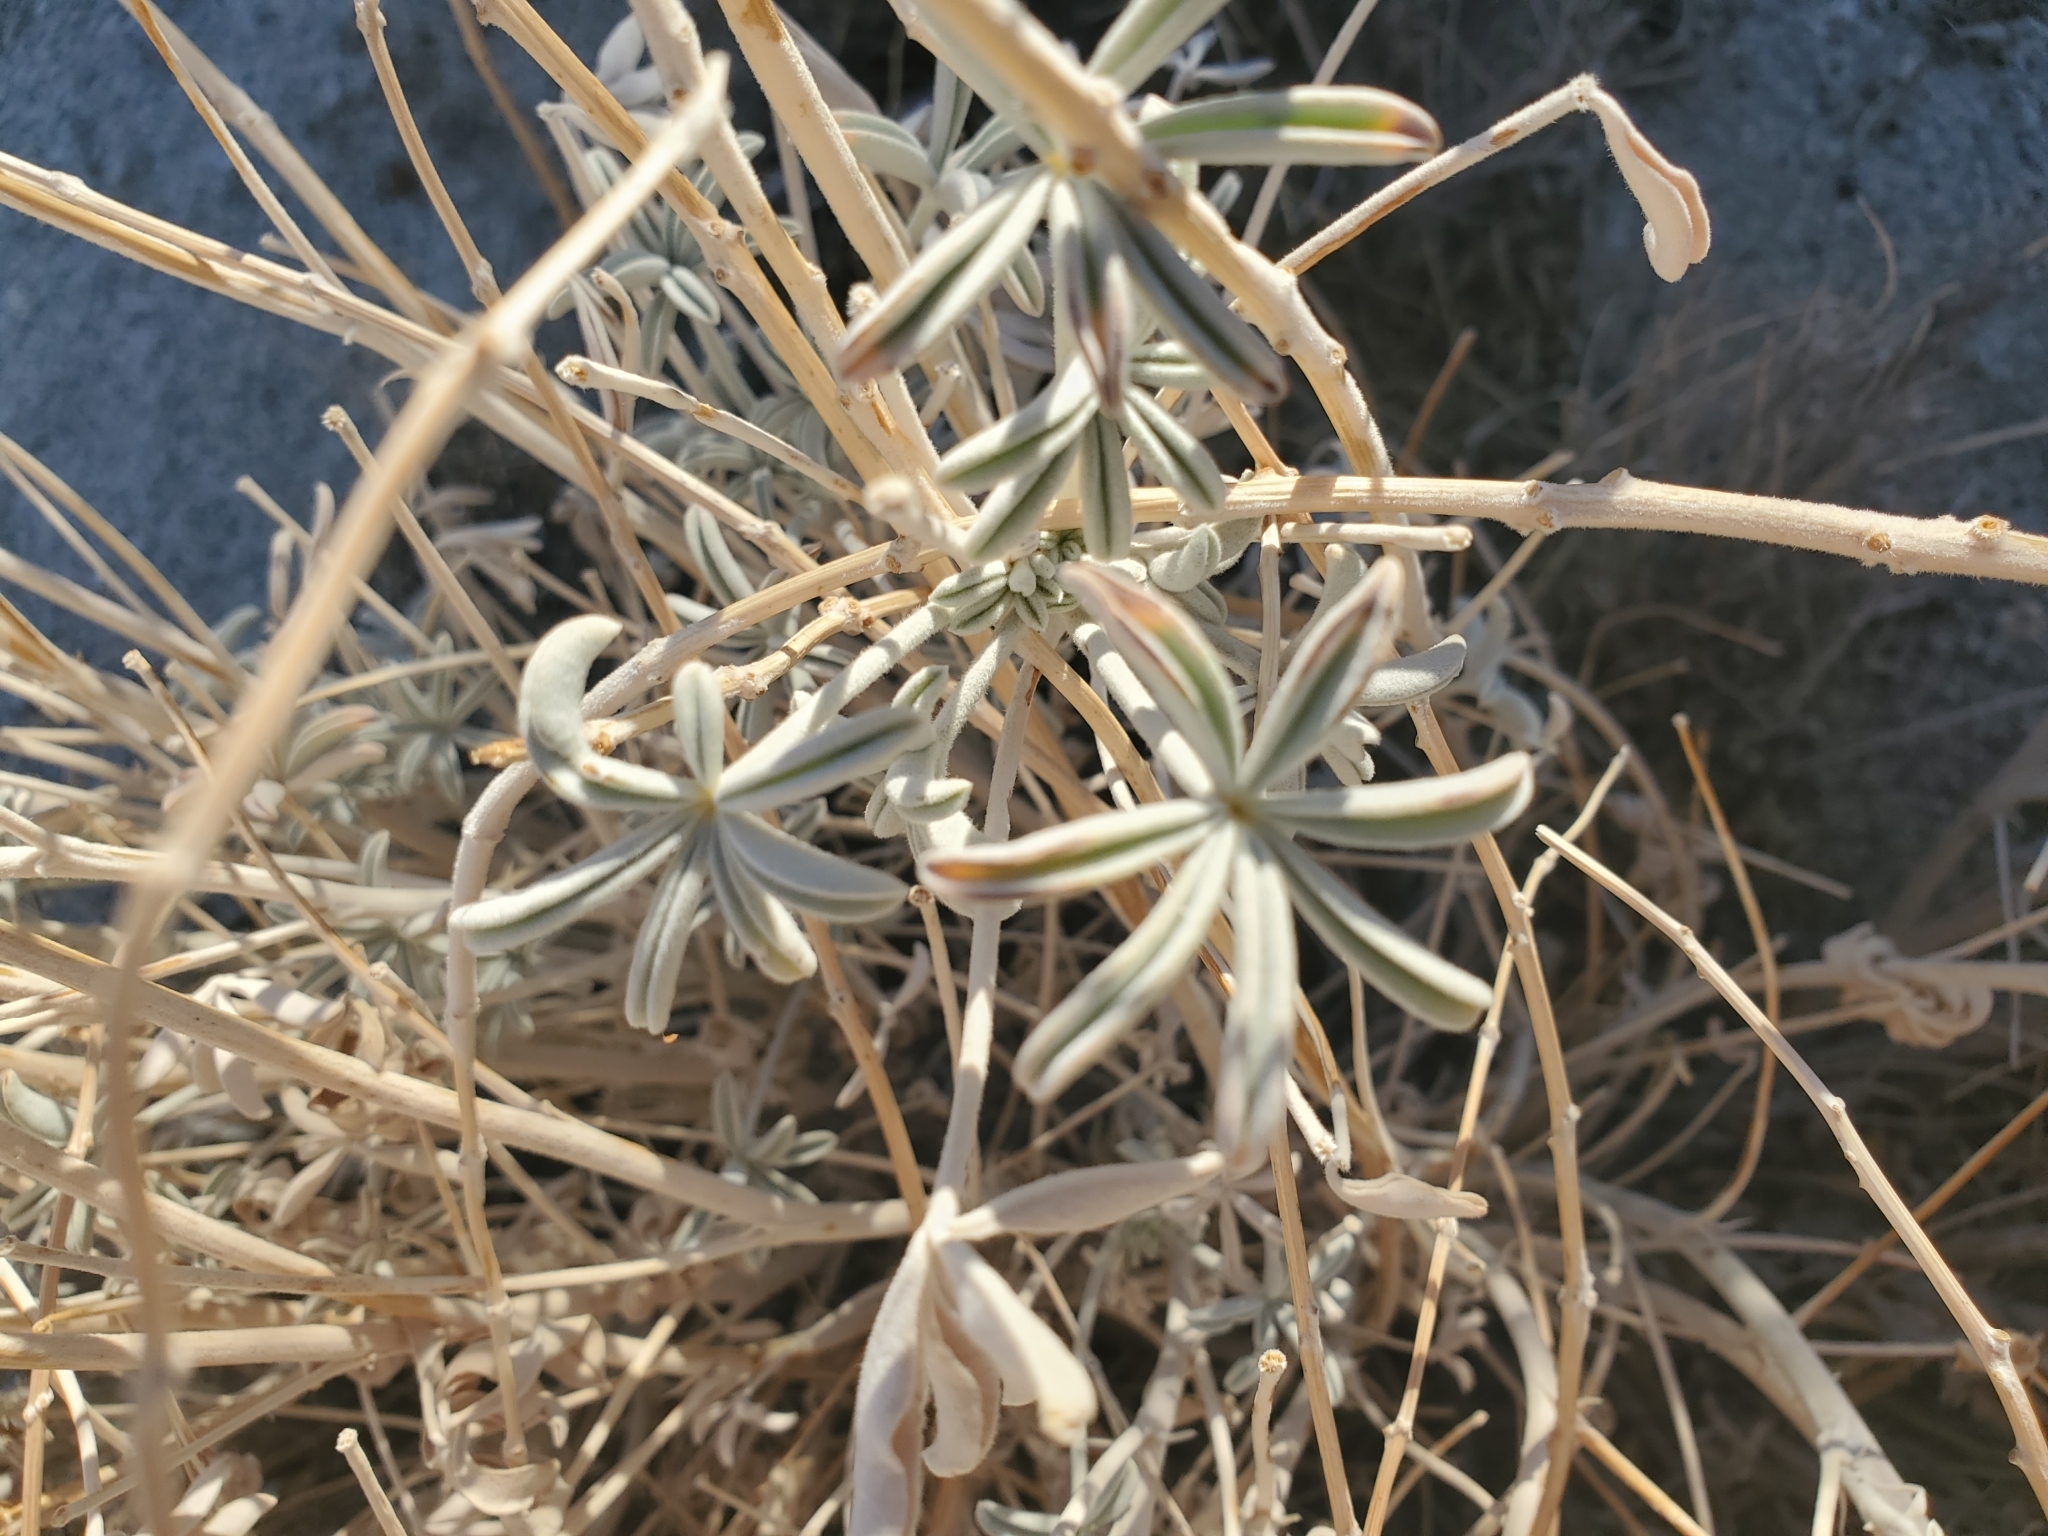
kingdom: Plantae
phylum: Tracheophyta
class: Magnoliopsida
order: Fabales
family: Fabaceae
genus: Lupinus
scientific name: Lupinus excubitus
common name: Grape soda lupine
